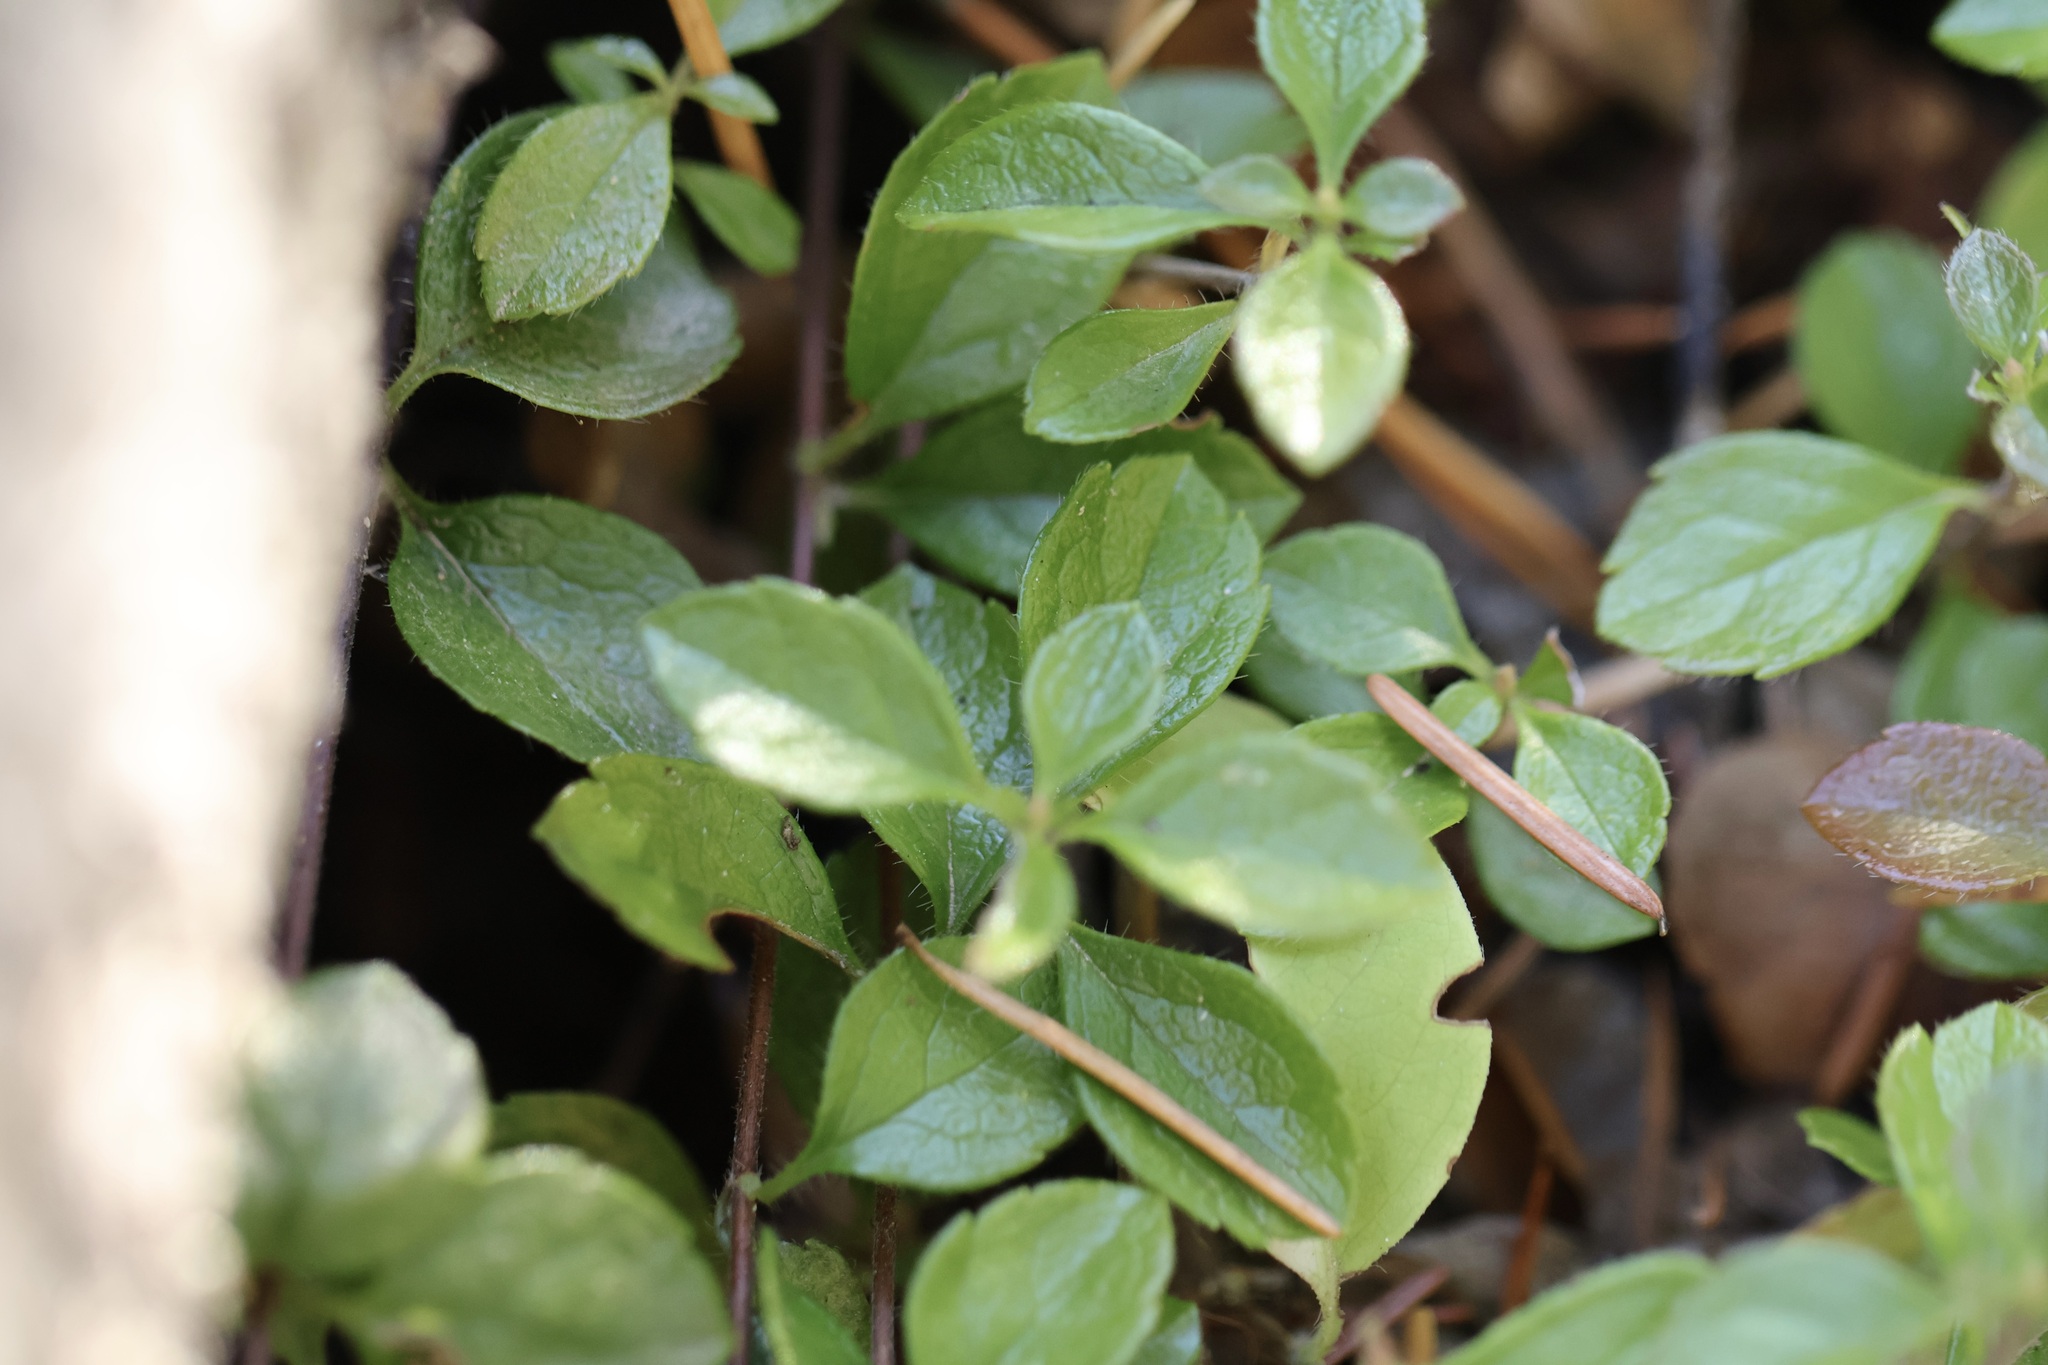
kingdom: Plantae
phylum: Tracheophyta
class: Magnoliopsida
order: Dipsacales
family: Caprifoliaceae
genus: Linnaea
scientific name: Linnaea borealis
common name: Twinflower
